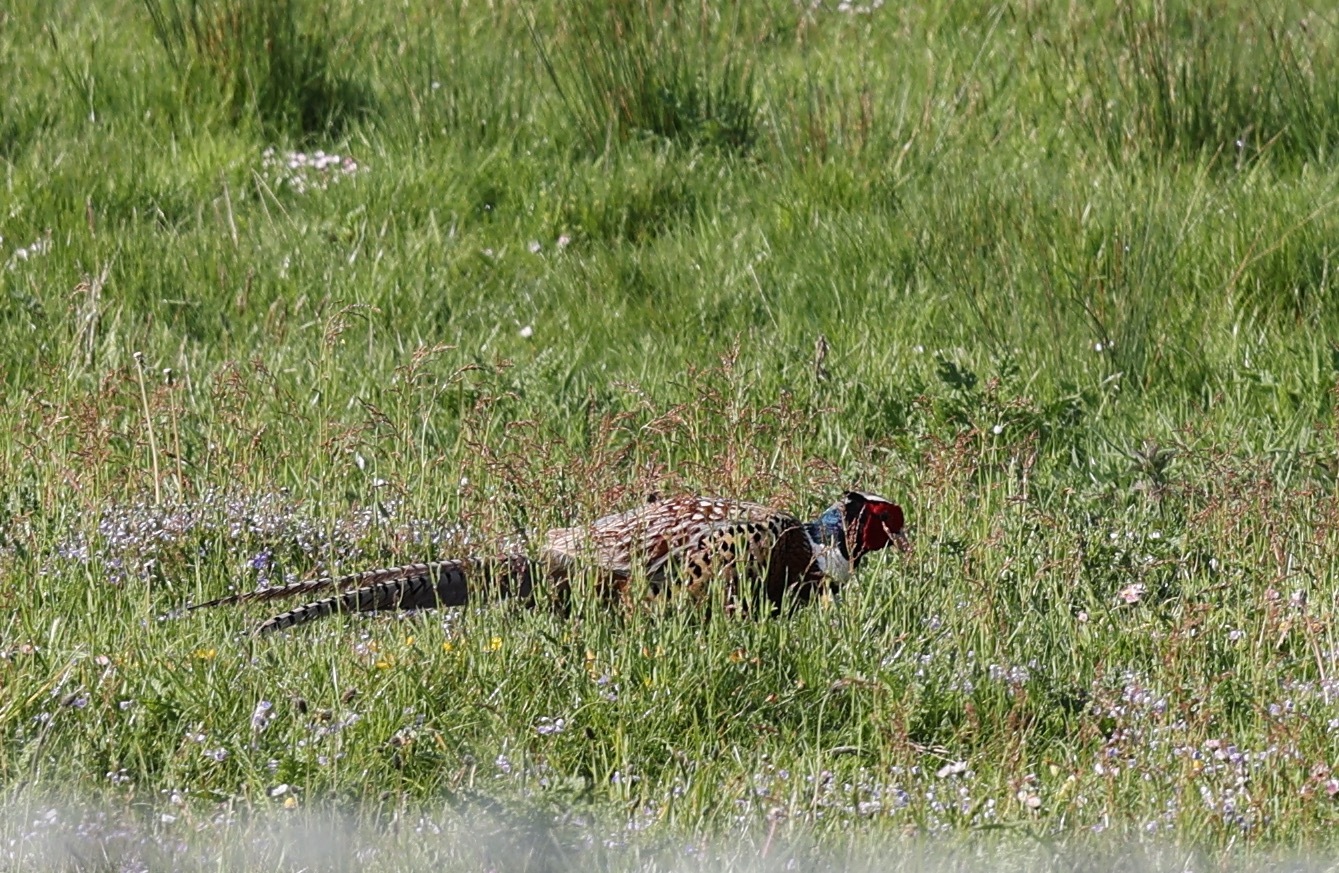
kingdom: Animalia
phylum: Chordata
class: Aves
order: Galliformes
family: Phasianidae
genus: Phasianus
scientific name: Phasianus colchicus
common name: Common pheasant
